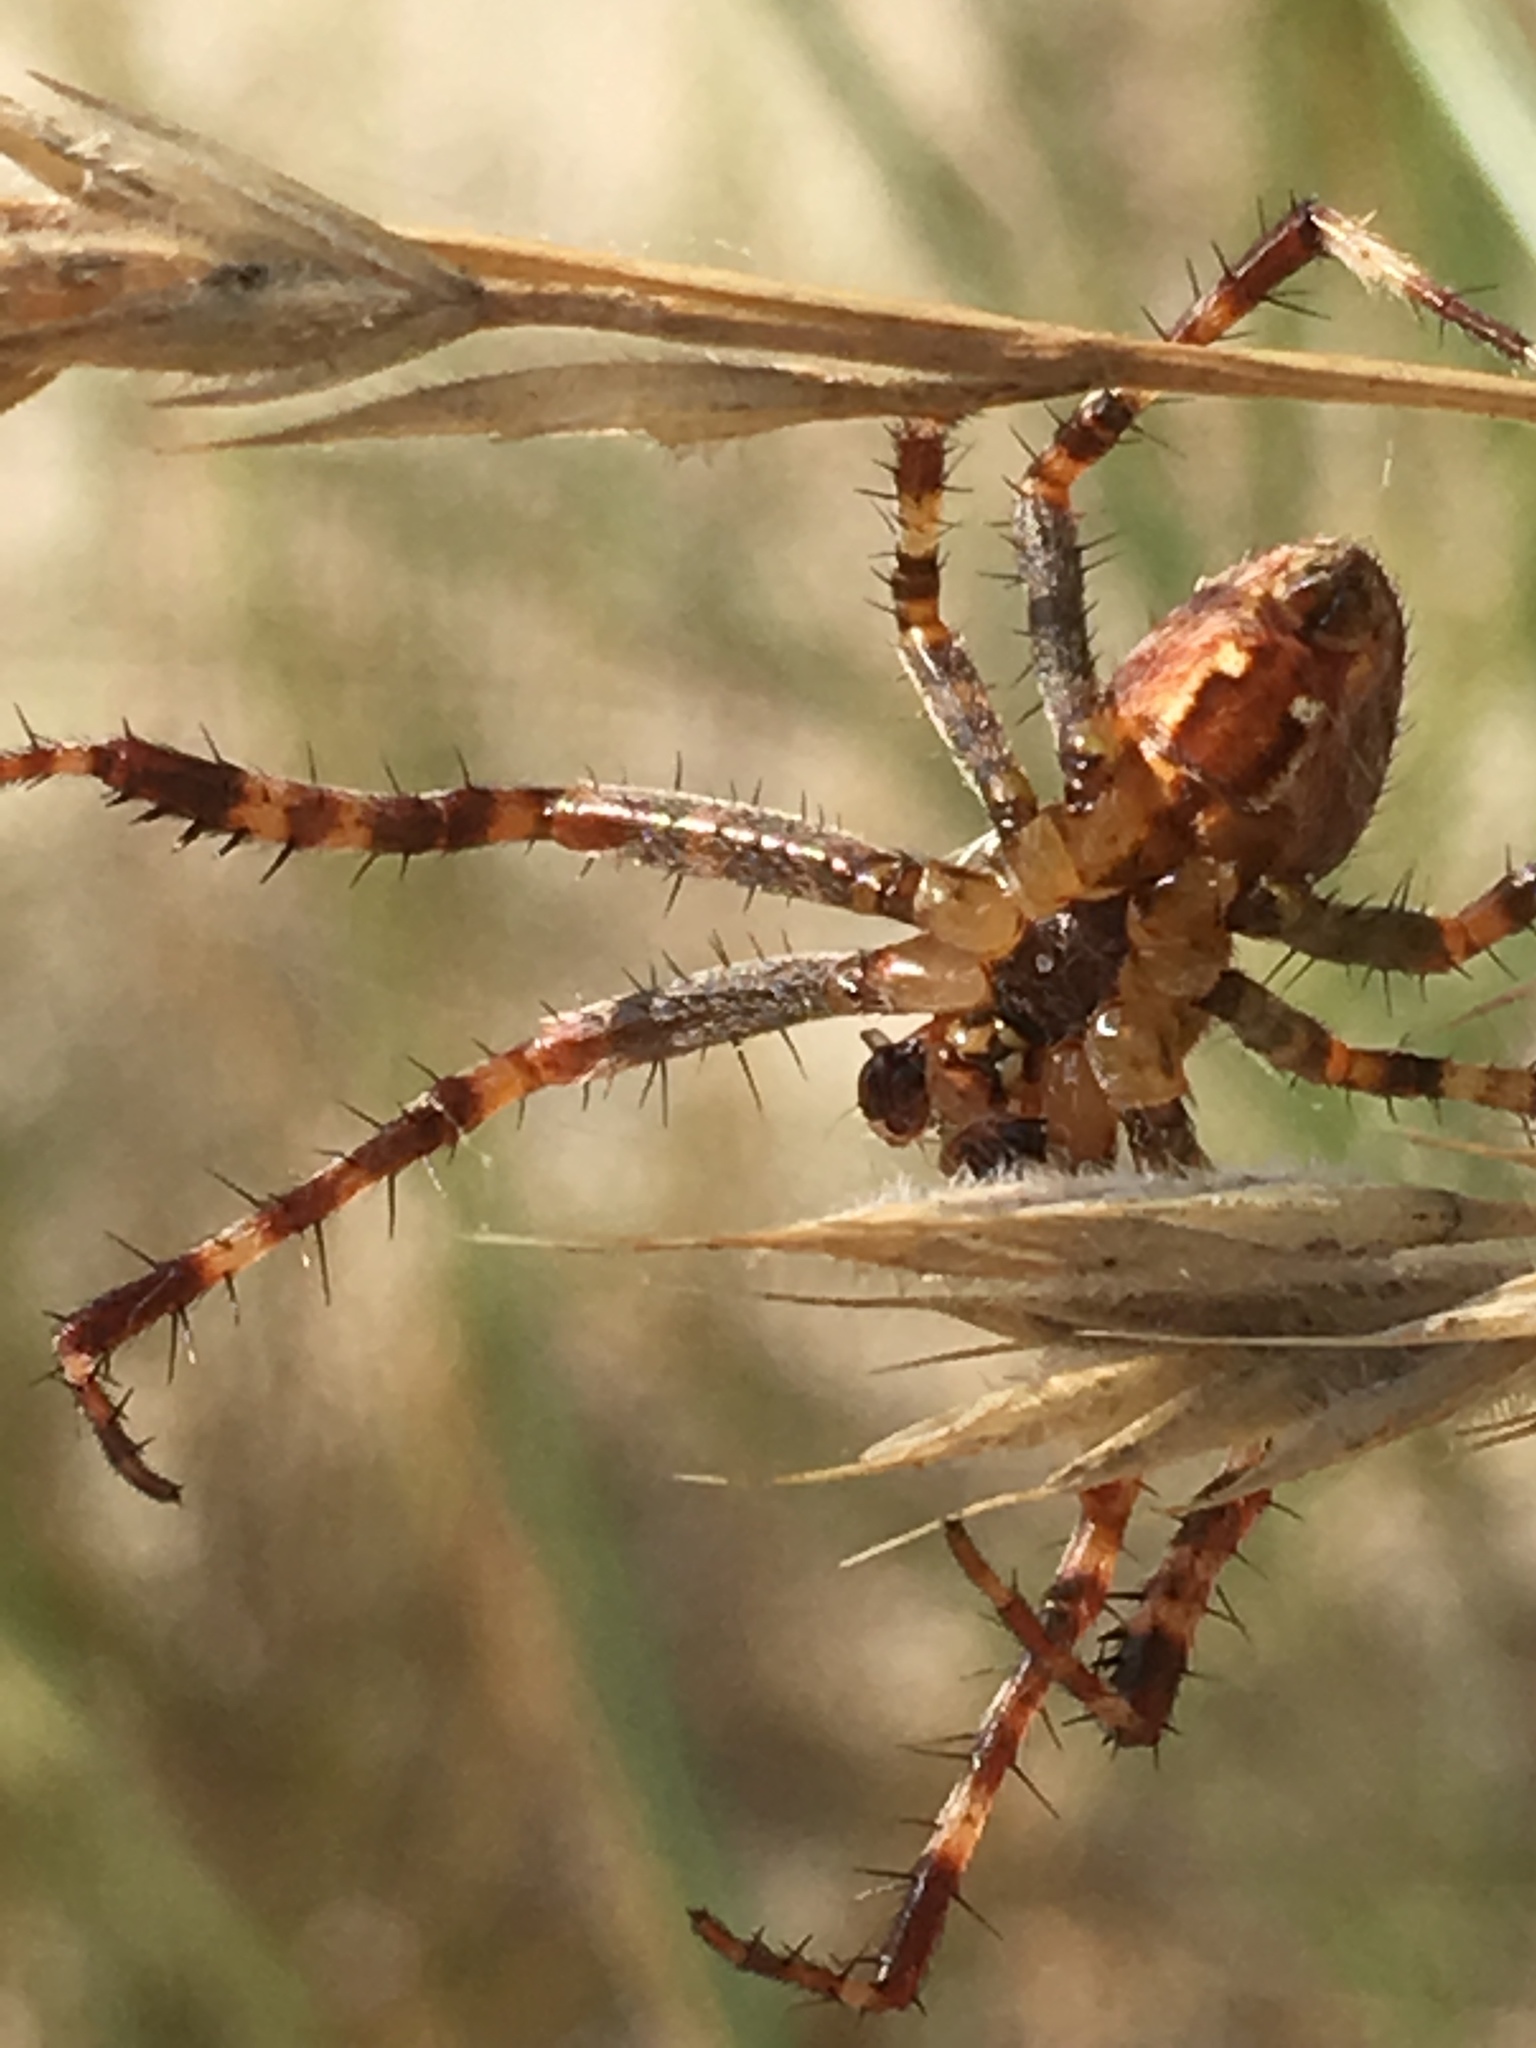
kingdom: Animalia
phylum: Arthropoda
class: Arachnida
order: Araneae
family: Araneidae
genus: Araneus
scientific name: Araneus diadematus
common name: Cross orbweaver
